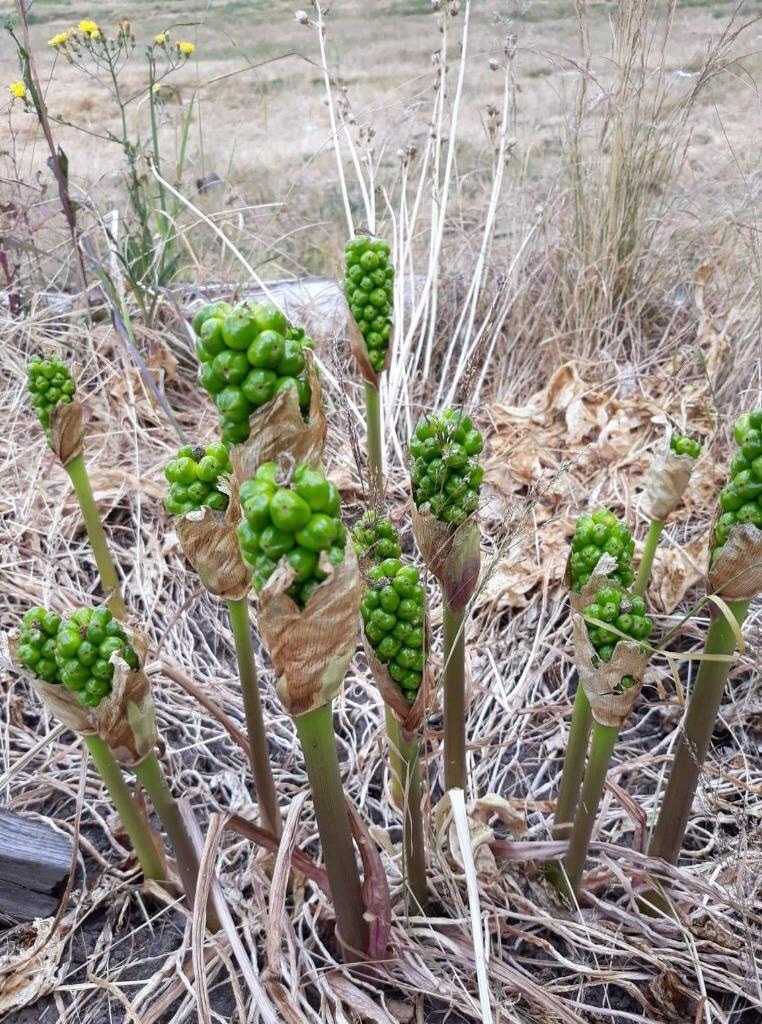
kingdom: Plantae
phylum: Tracheophyta
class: Liliopsida
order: Alismatales
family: Araceae
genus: Arum
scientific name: Arum italicum
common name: Italian lords-and-ladies
